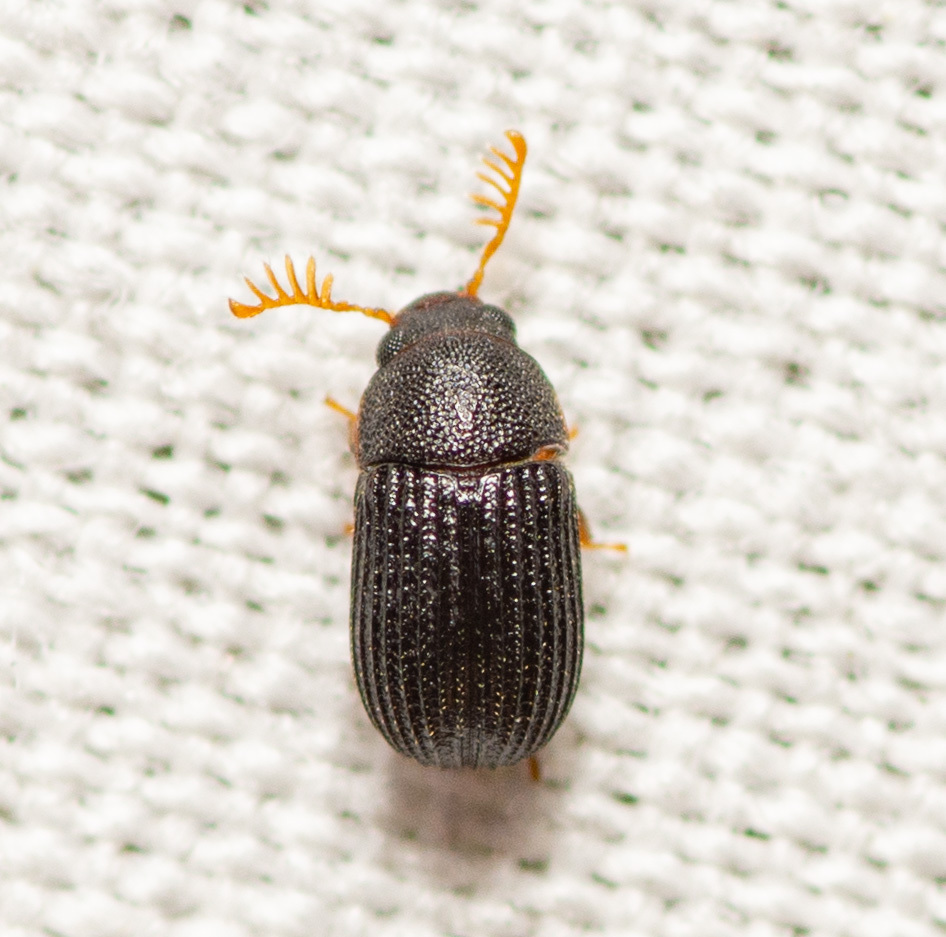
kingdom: Animalia
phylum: Arthropoda
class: Insecta
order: Coleoptera
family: Tenebrionidae
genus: Rhipidandrus
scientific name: Rhipidandrus paradoxus
